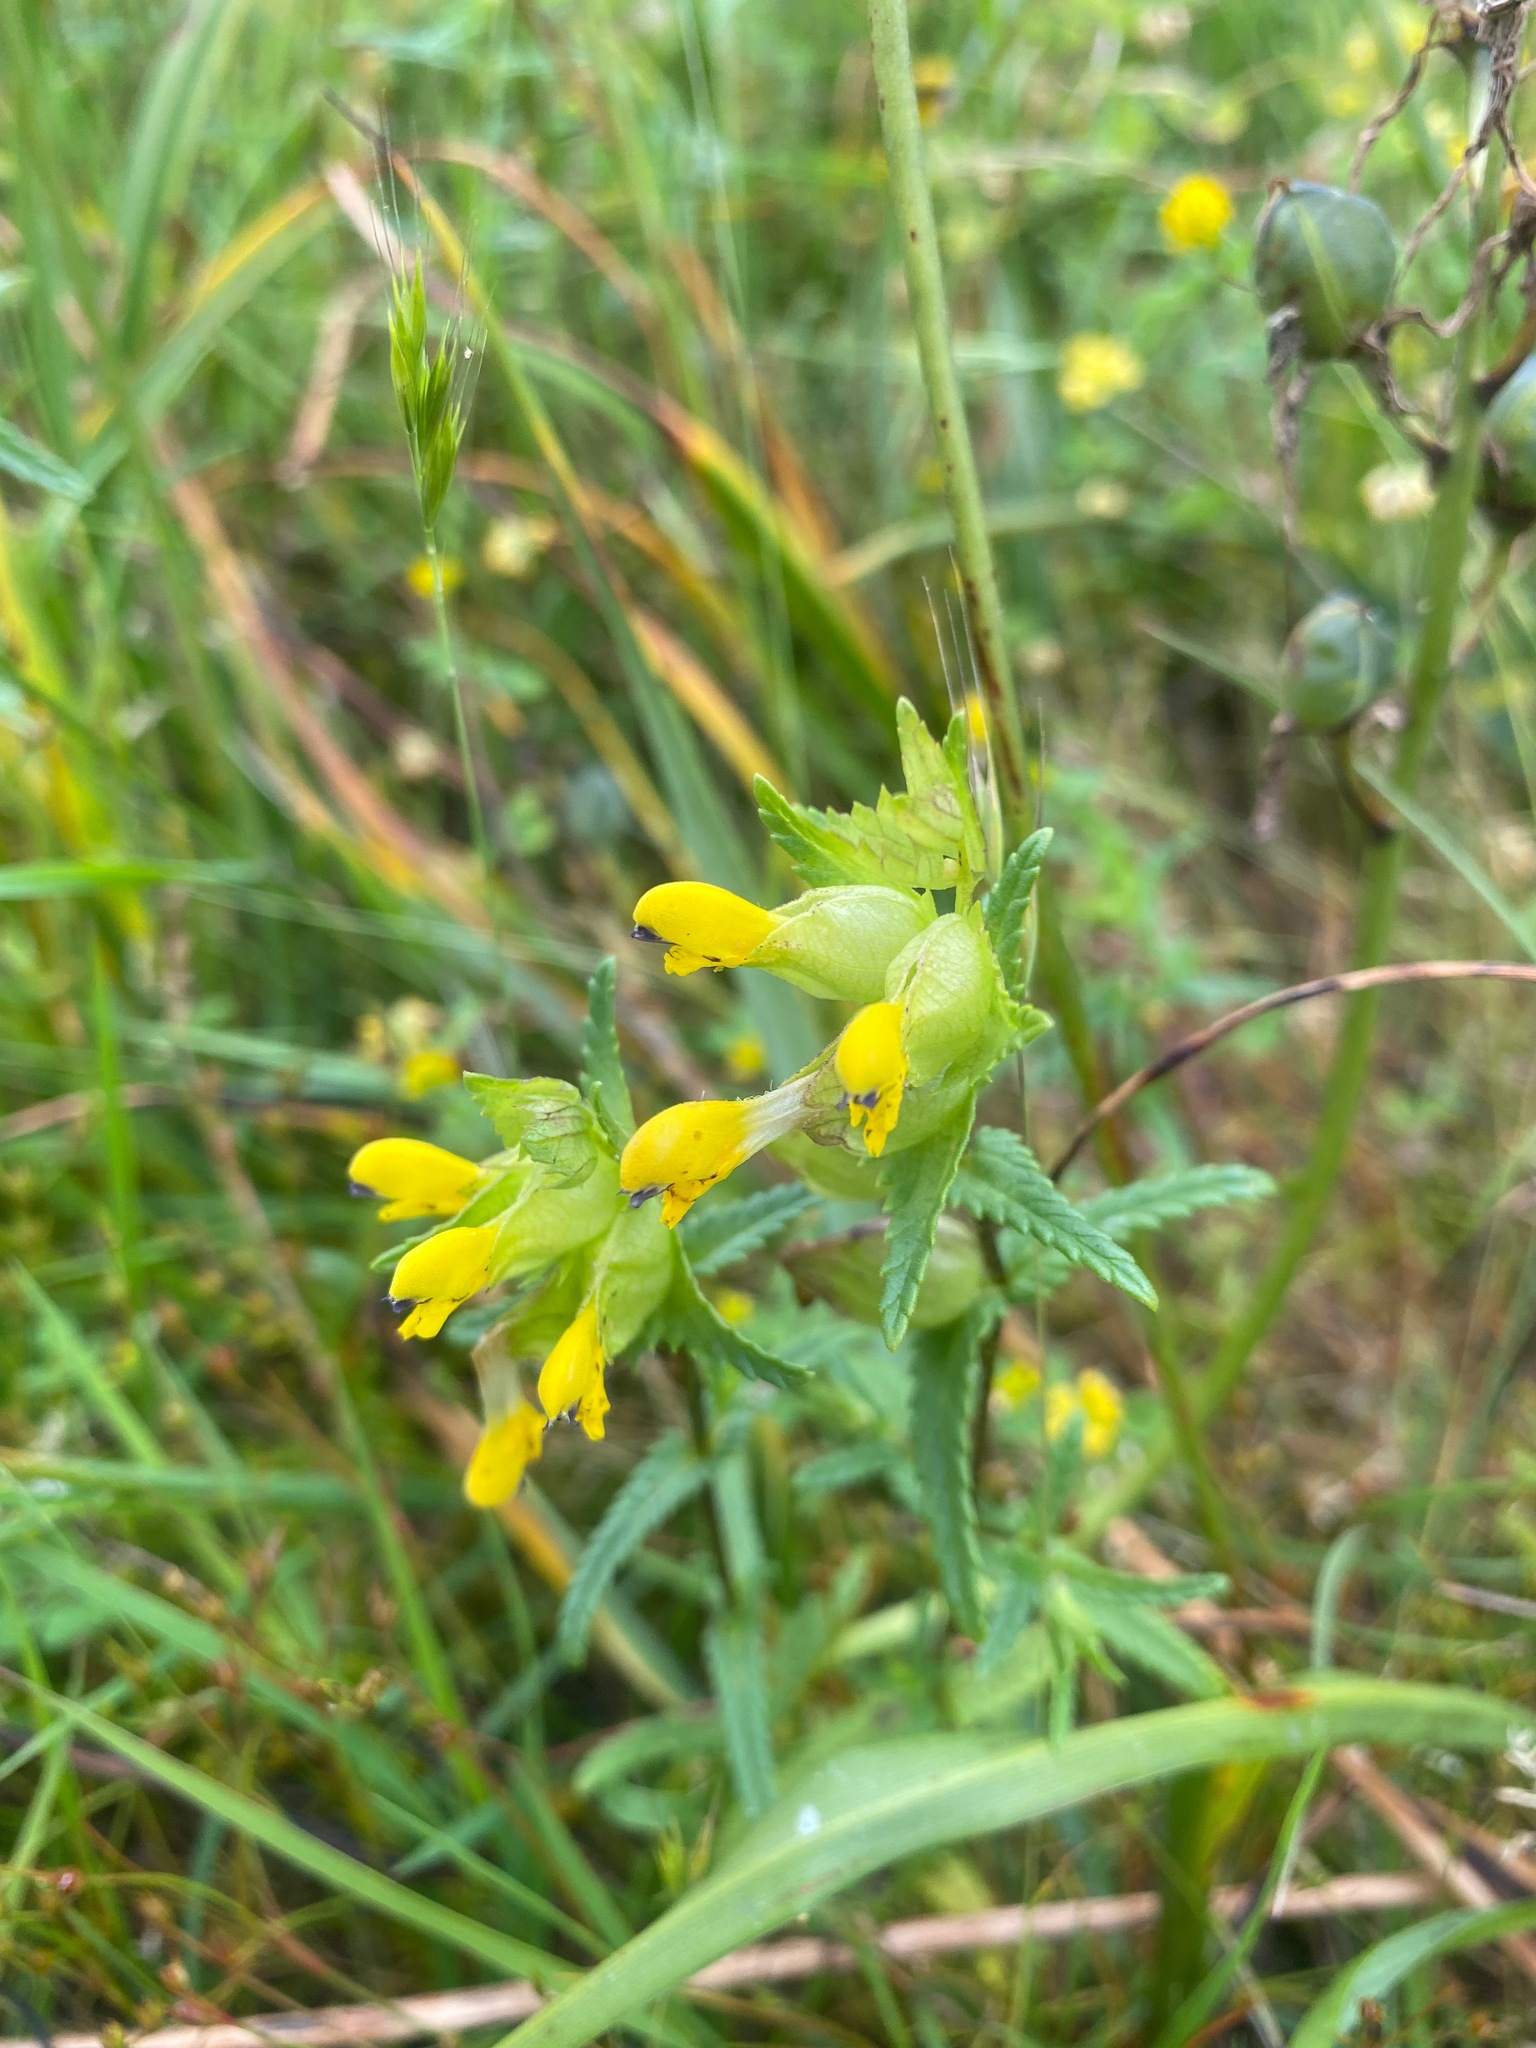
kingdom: Plantae
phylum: Tracheophyta
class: Magnoliopsida
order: Lamiales
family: Orobanchaceae
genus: Rhinanthus
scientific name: Rhinanthus minor
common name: Yellow-rattle
